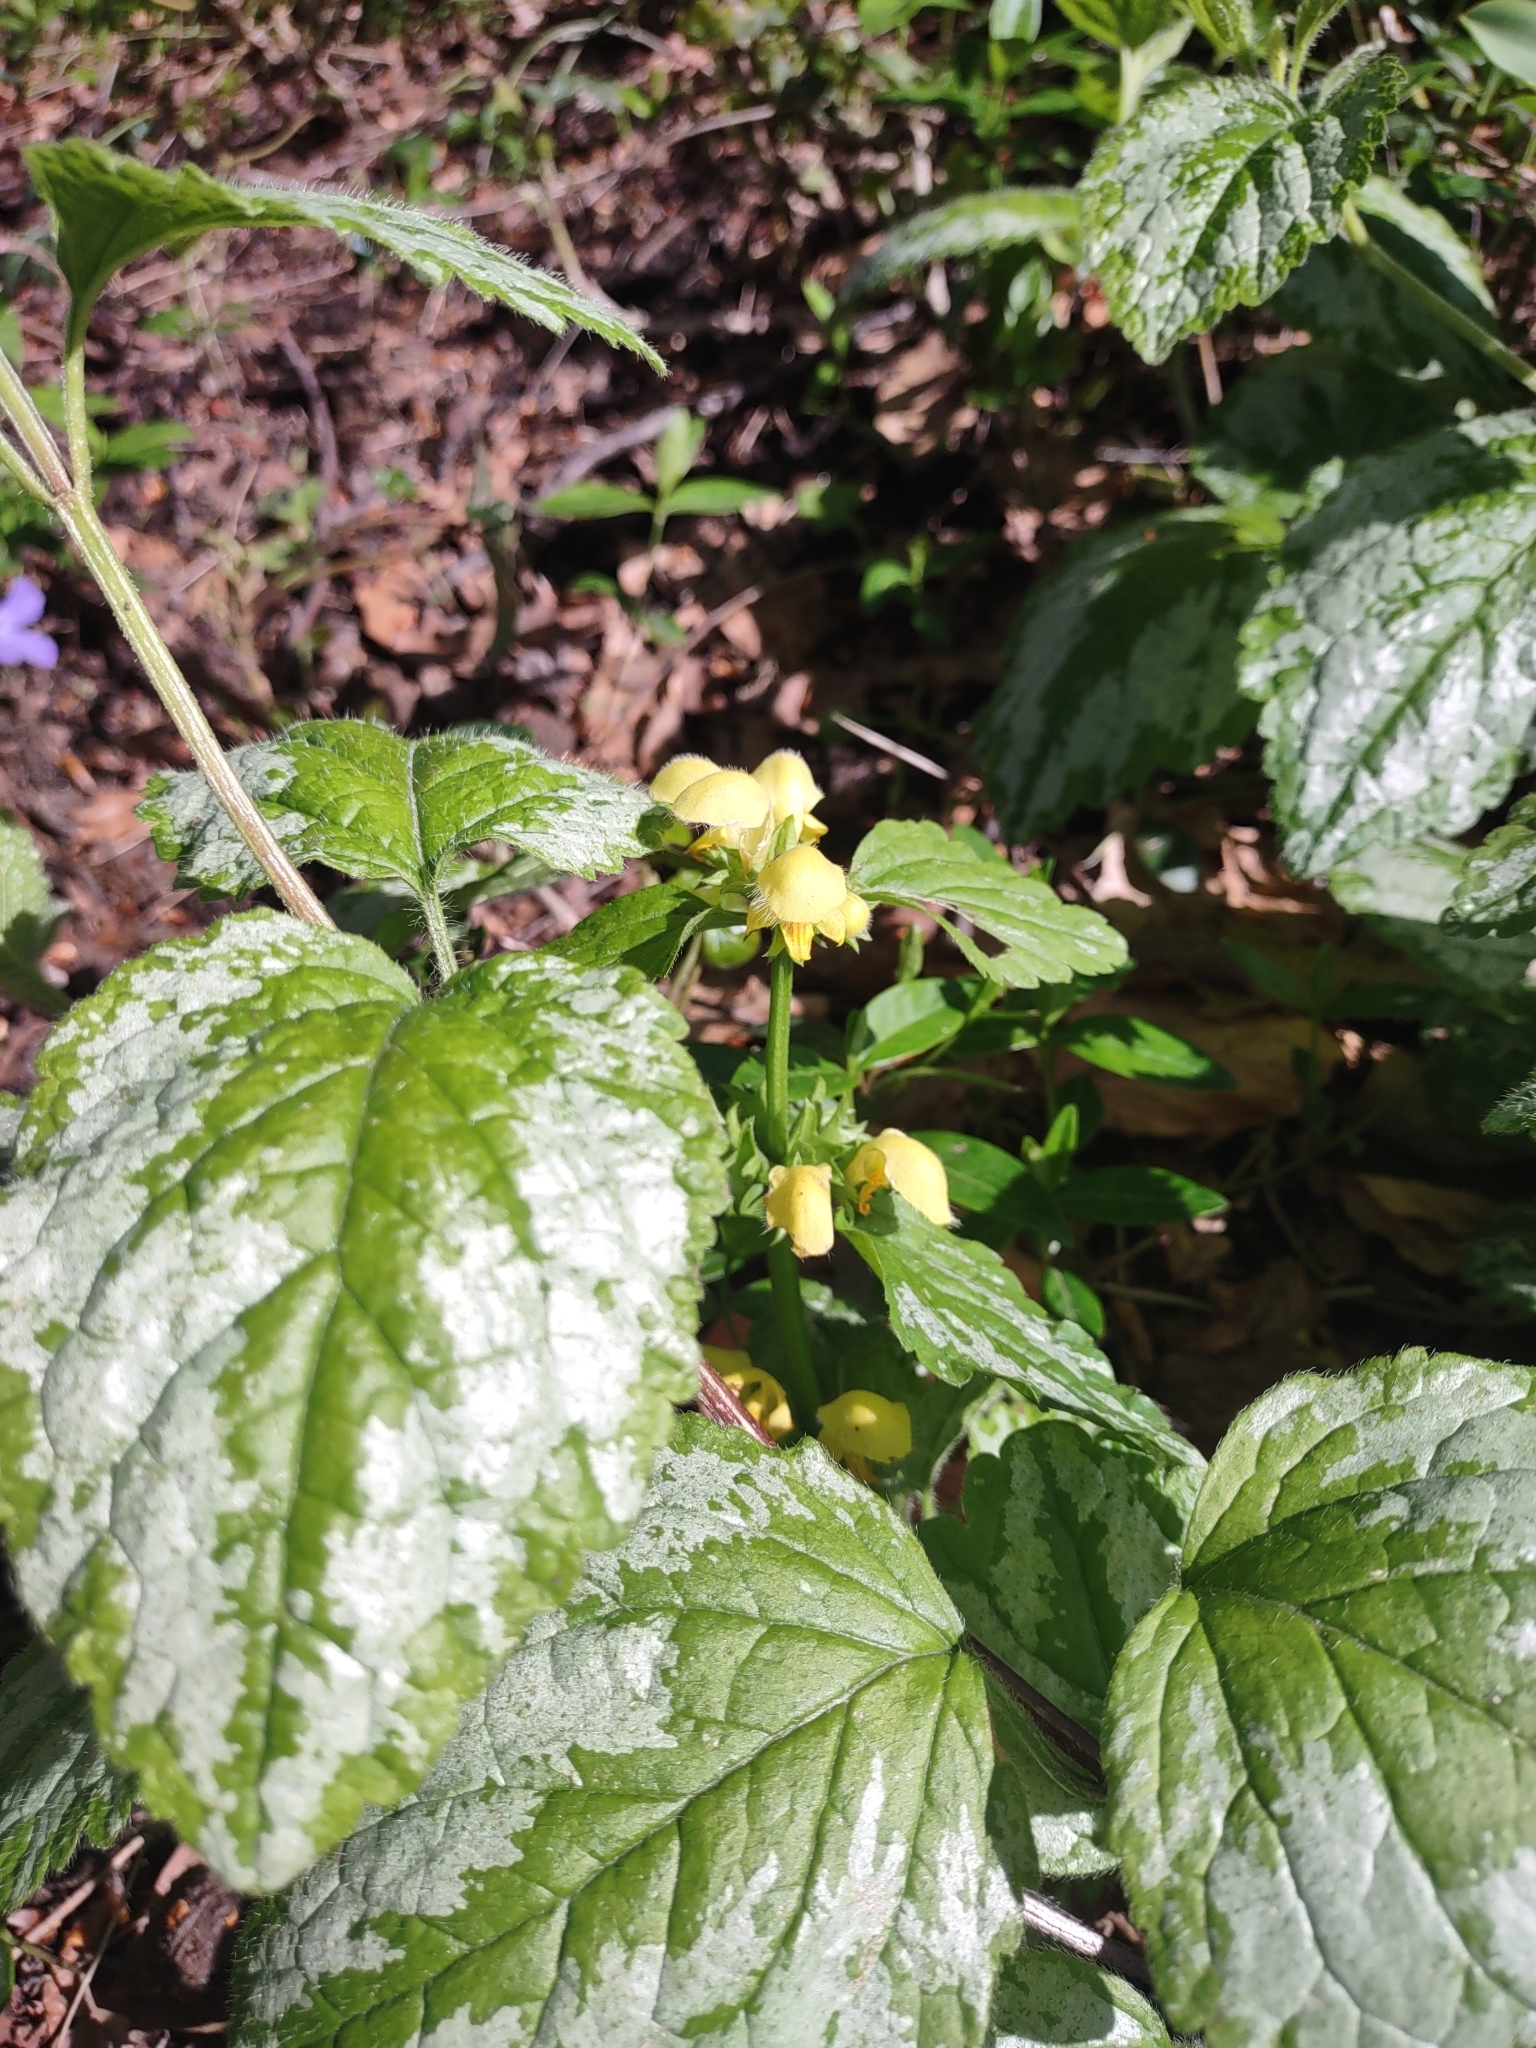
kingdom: Plantae
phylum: Tracheophyta
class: Magnoliopsida
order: Lamiales
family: Lamiaceae
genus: Lamium
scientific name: Lamium galeobdolon
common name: Yellow archangel
